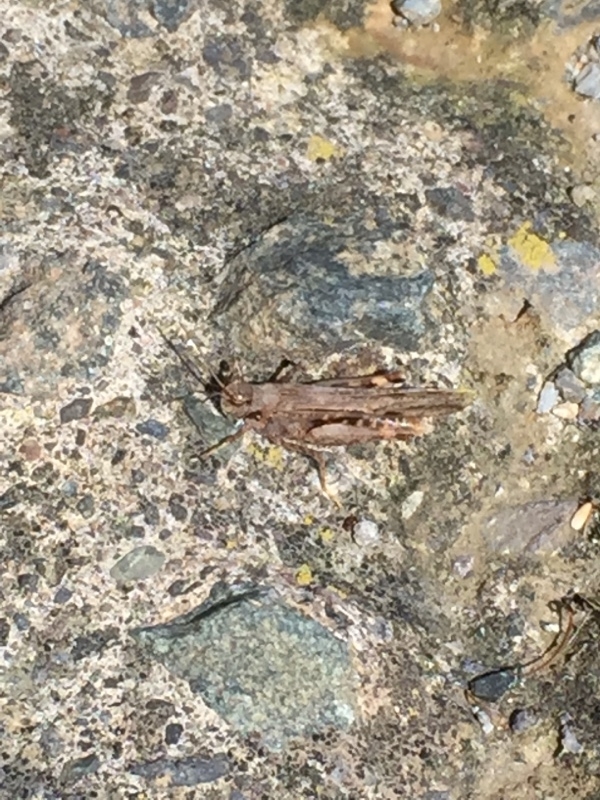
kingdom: Animalia
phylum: Arthropoda
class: Insecta
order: Orthoptera
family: Acrididae
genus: Acrotylus
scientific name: Acrotylus insubricus
